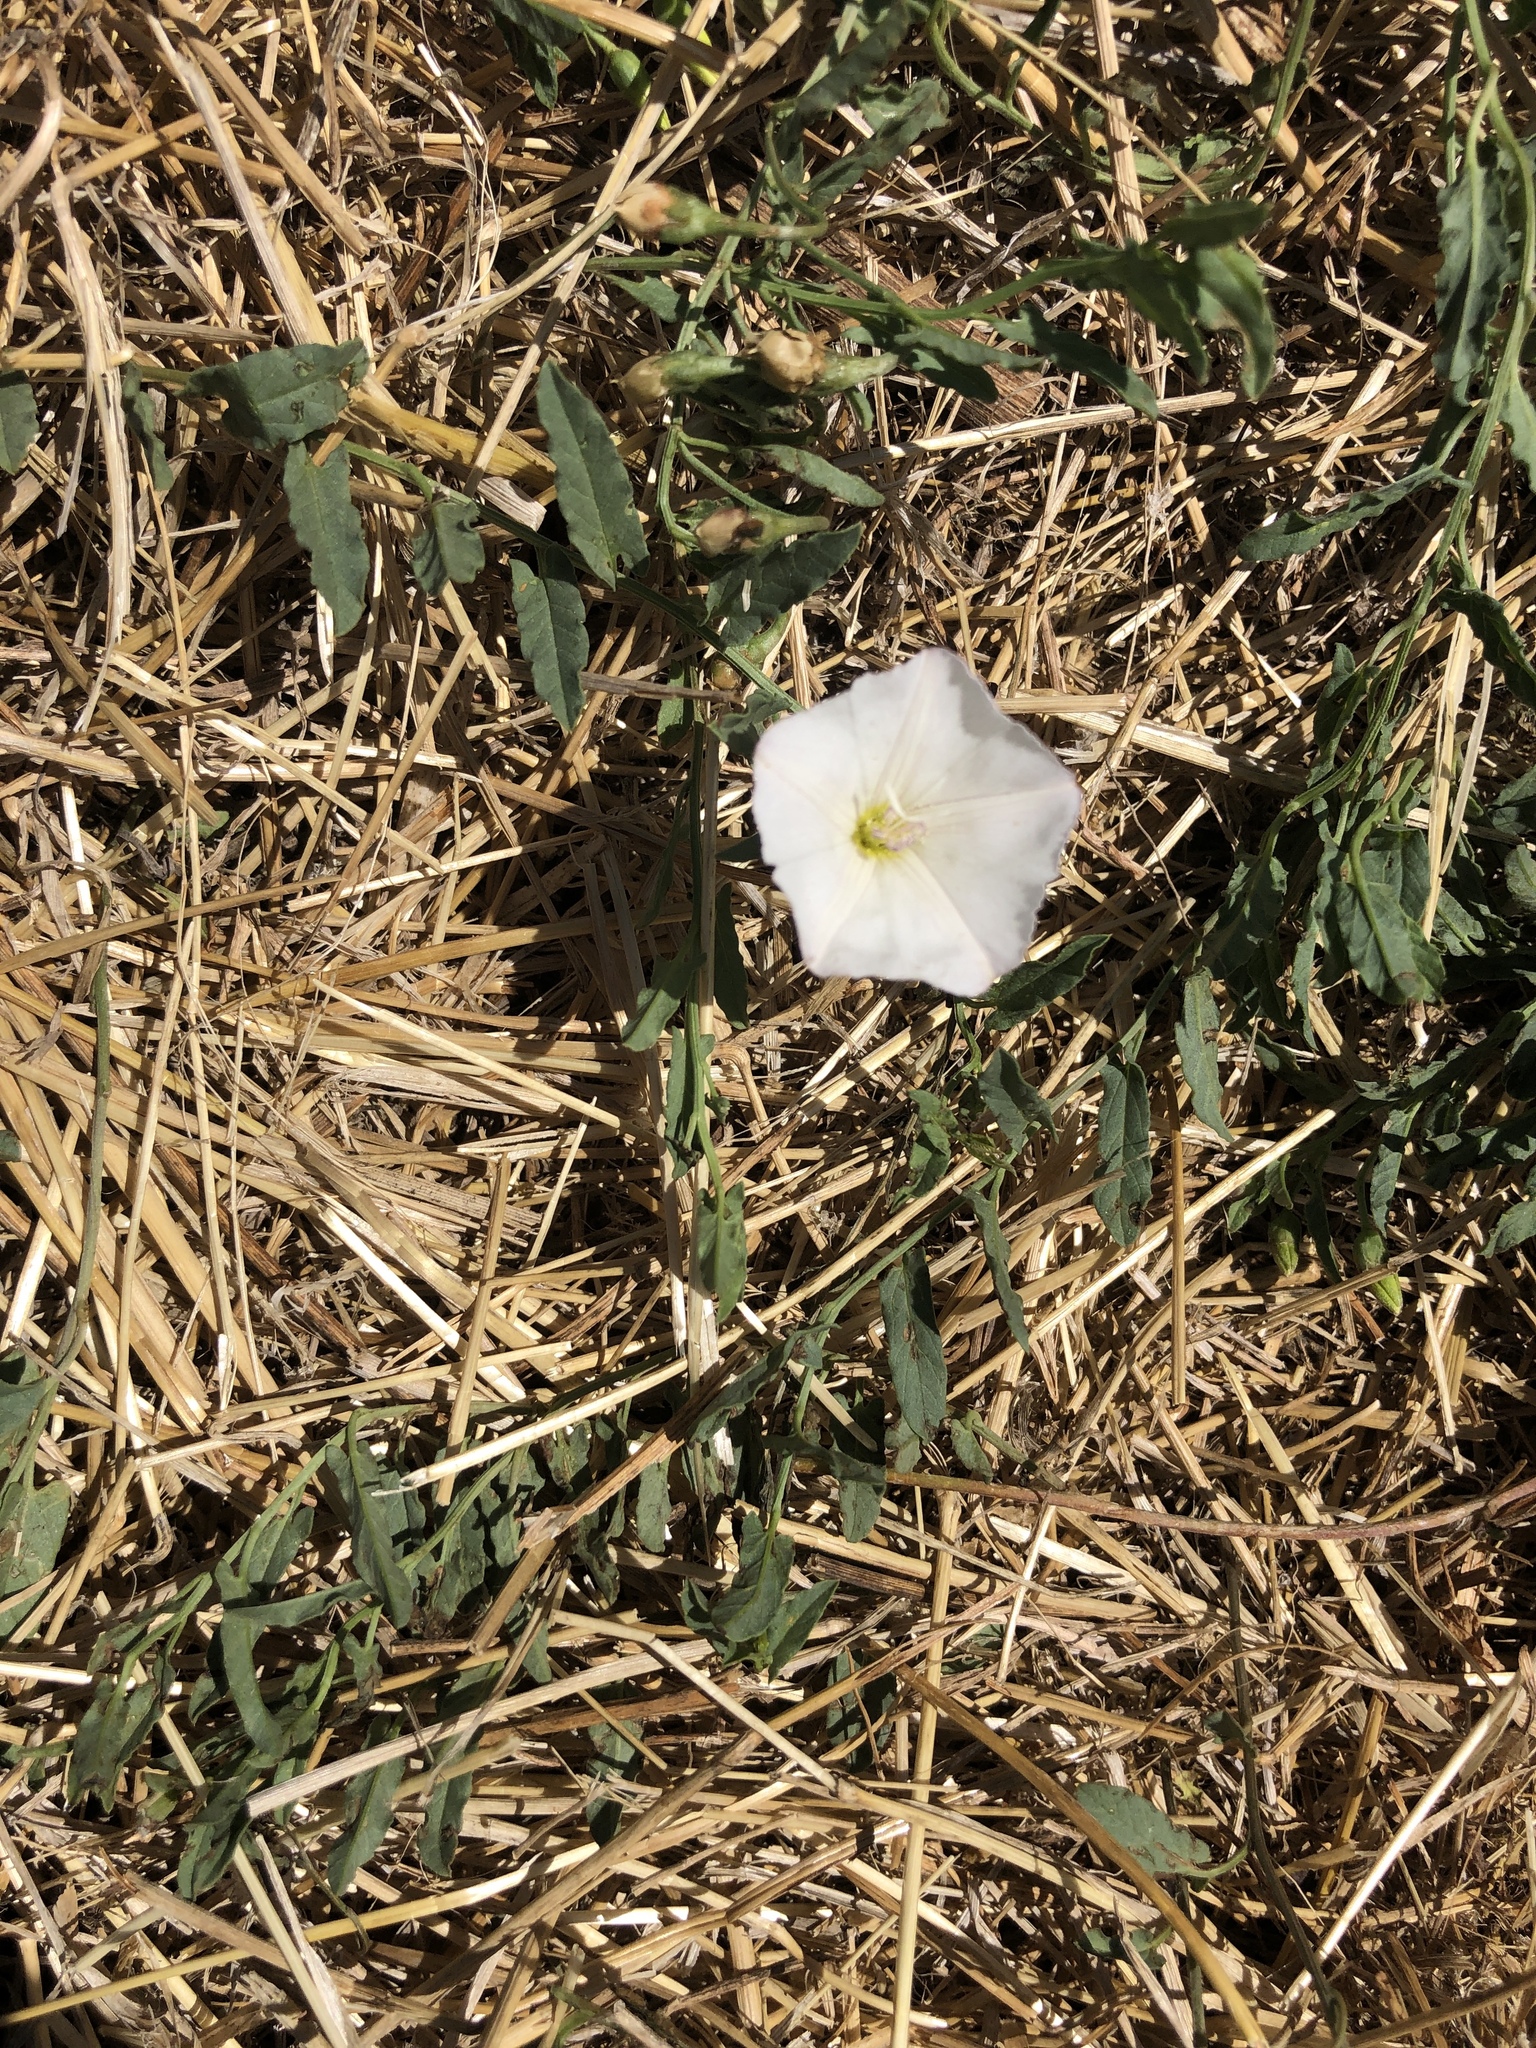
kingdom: Plantae
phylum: Tracheophyta
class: Magnoliopsida
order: Solanales
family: Convolvulaceae
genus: Convolvulus
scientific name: Convolvulus arvensis
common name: Field bindweed
